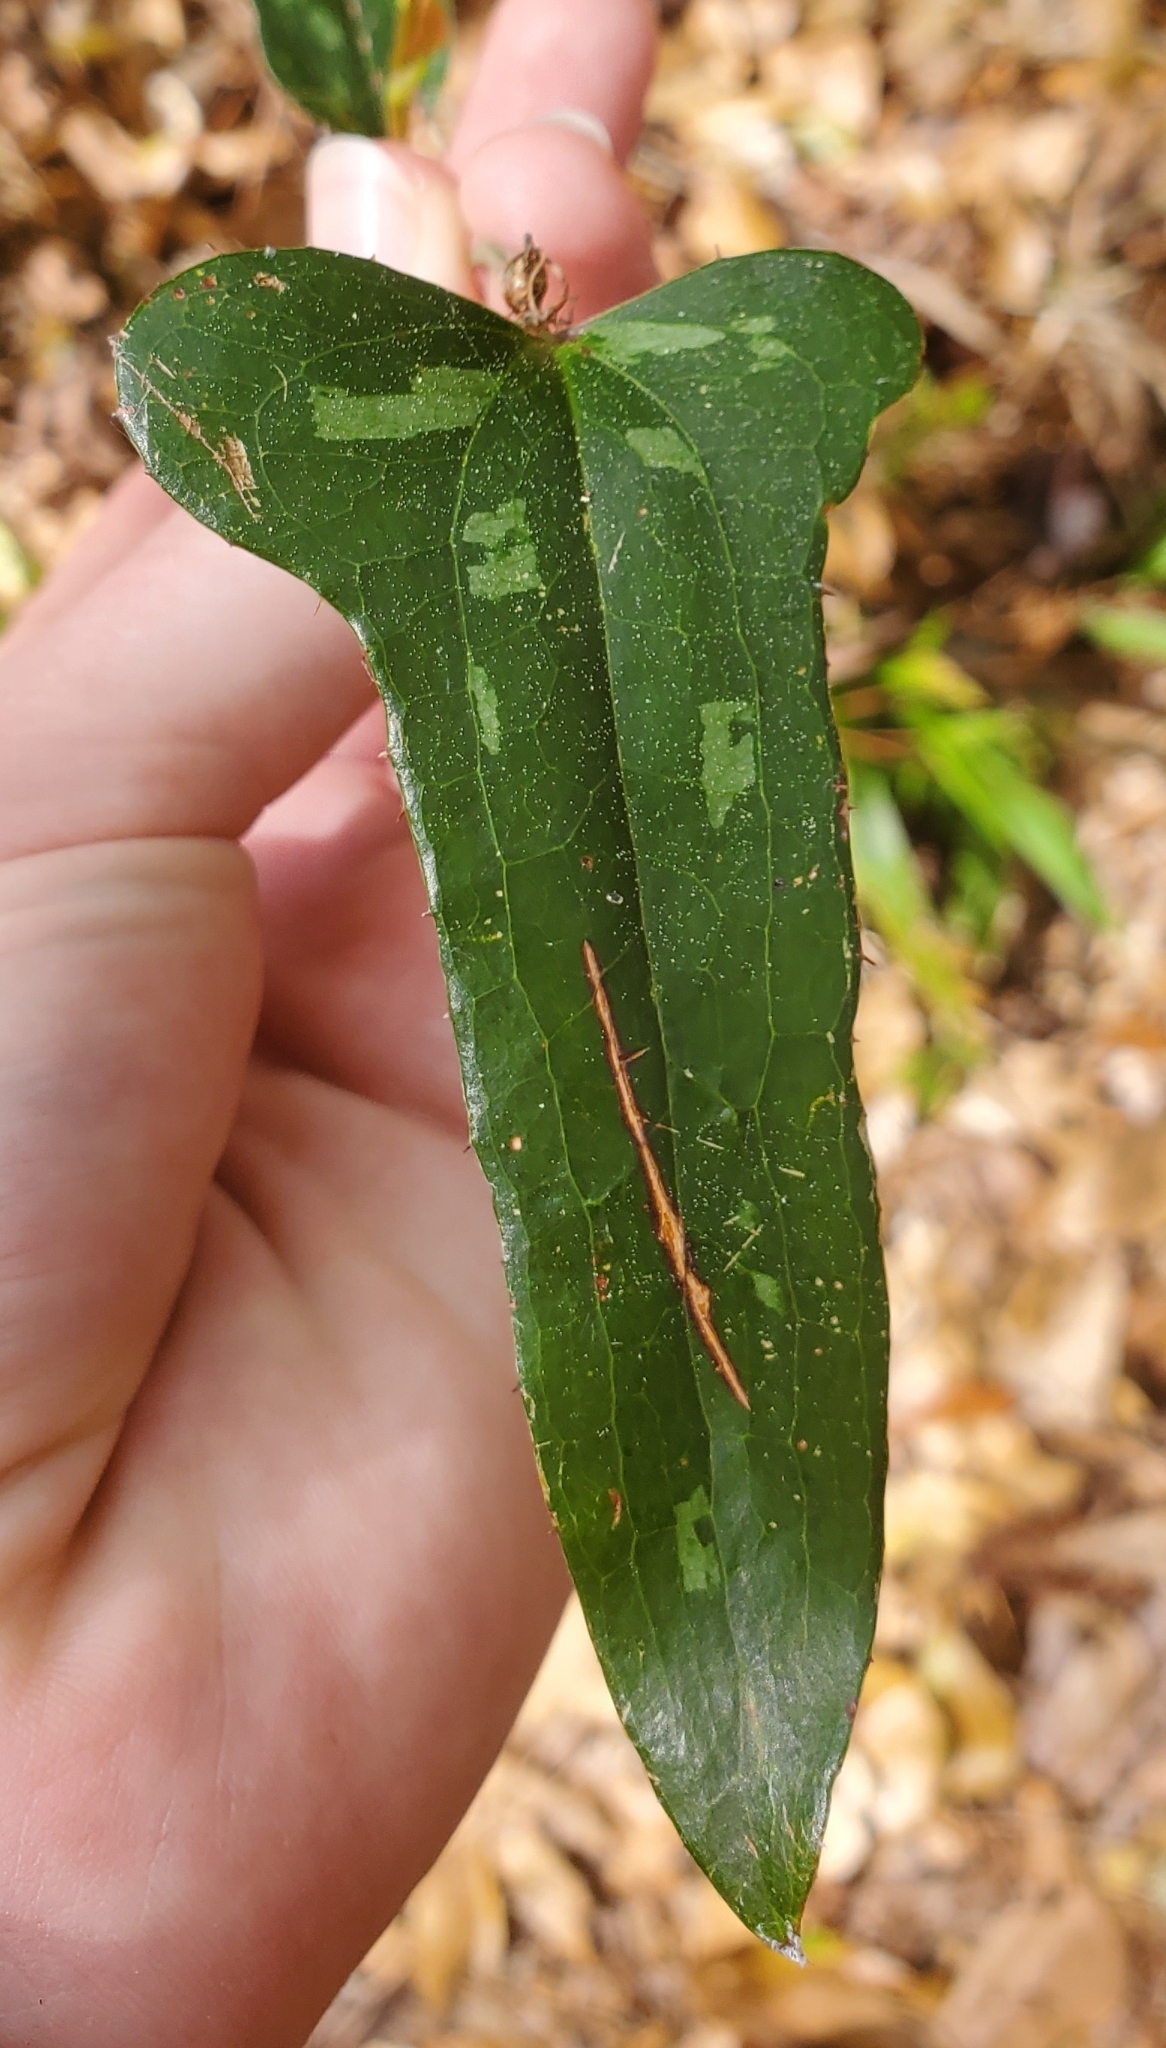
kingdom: Plantae
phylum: Tracheophyta
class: Liliopsida
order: Liliales
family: Smilacaceae
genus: Smilax
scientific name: Smilax bona-nox
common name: Catbrier
